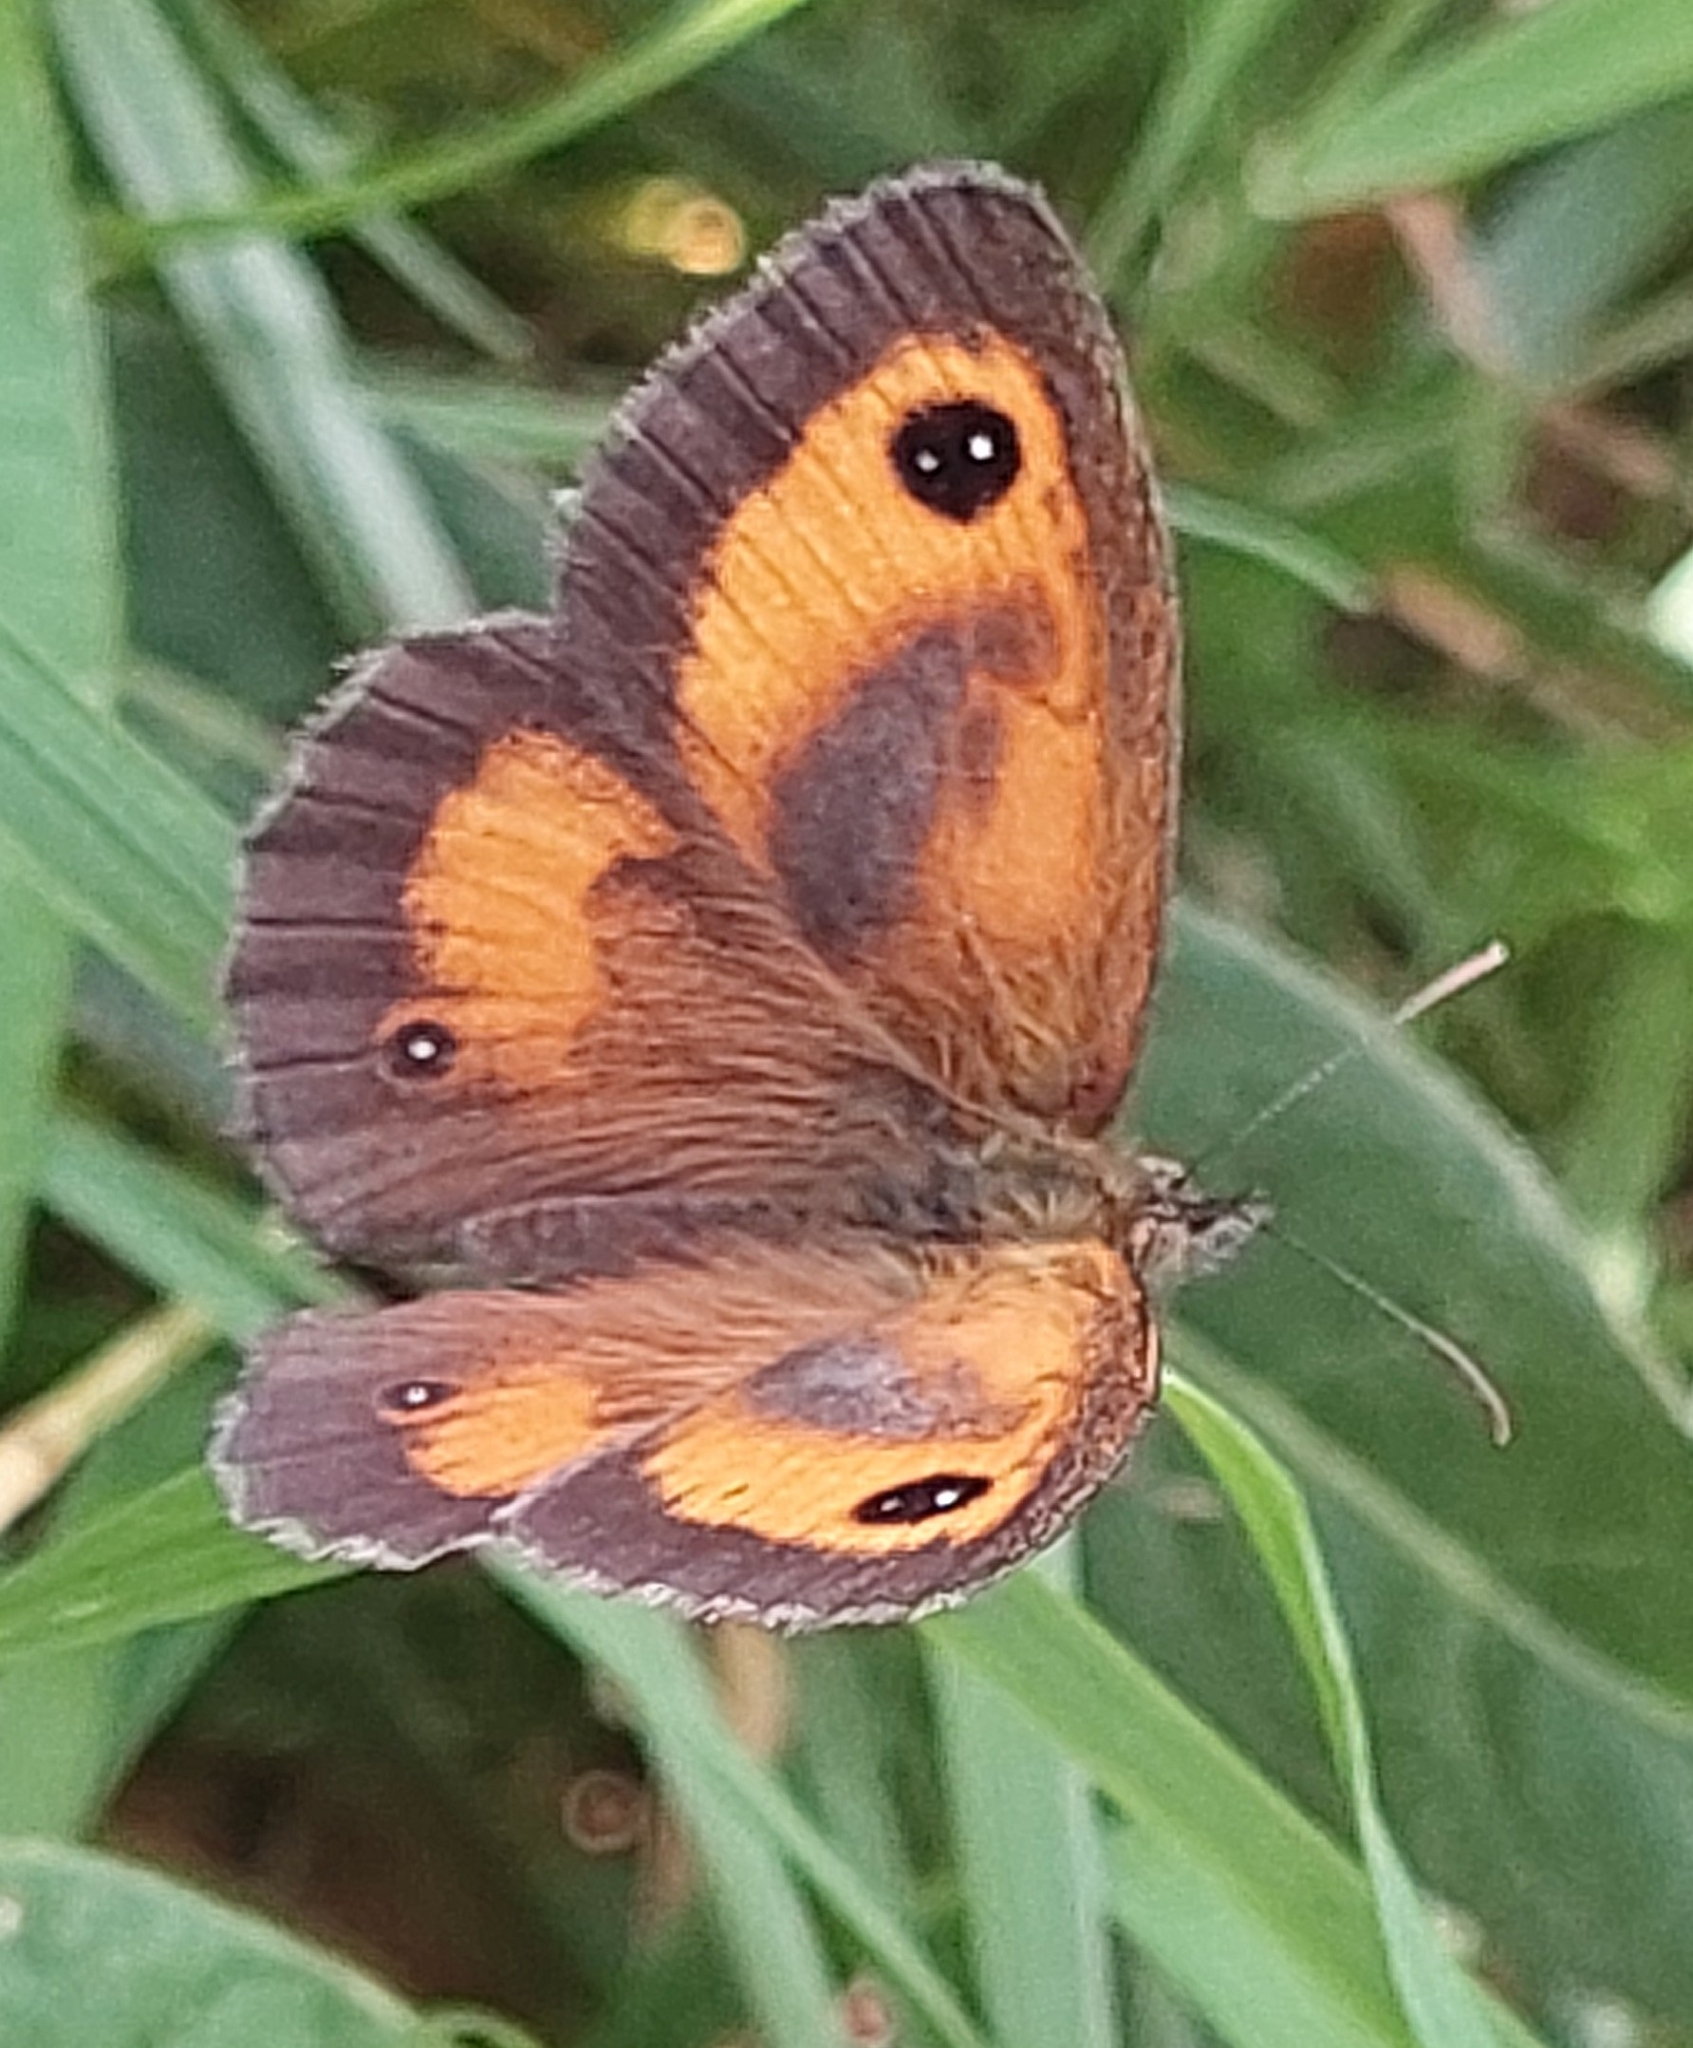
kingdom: Animalia
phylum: Arthropoda
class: Insecta
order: Lepidoptera
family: Nymphalidae
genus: Pyronia
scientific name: Pyronia tithonus
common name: Gatekeeper
